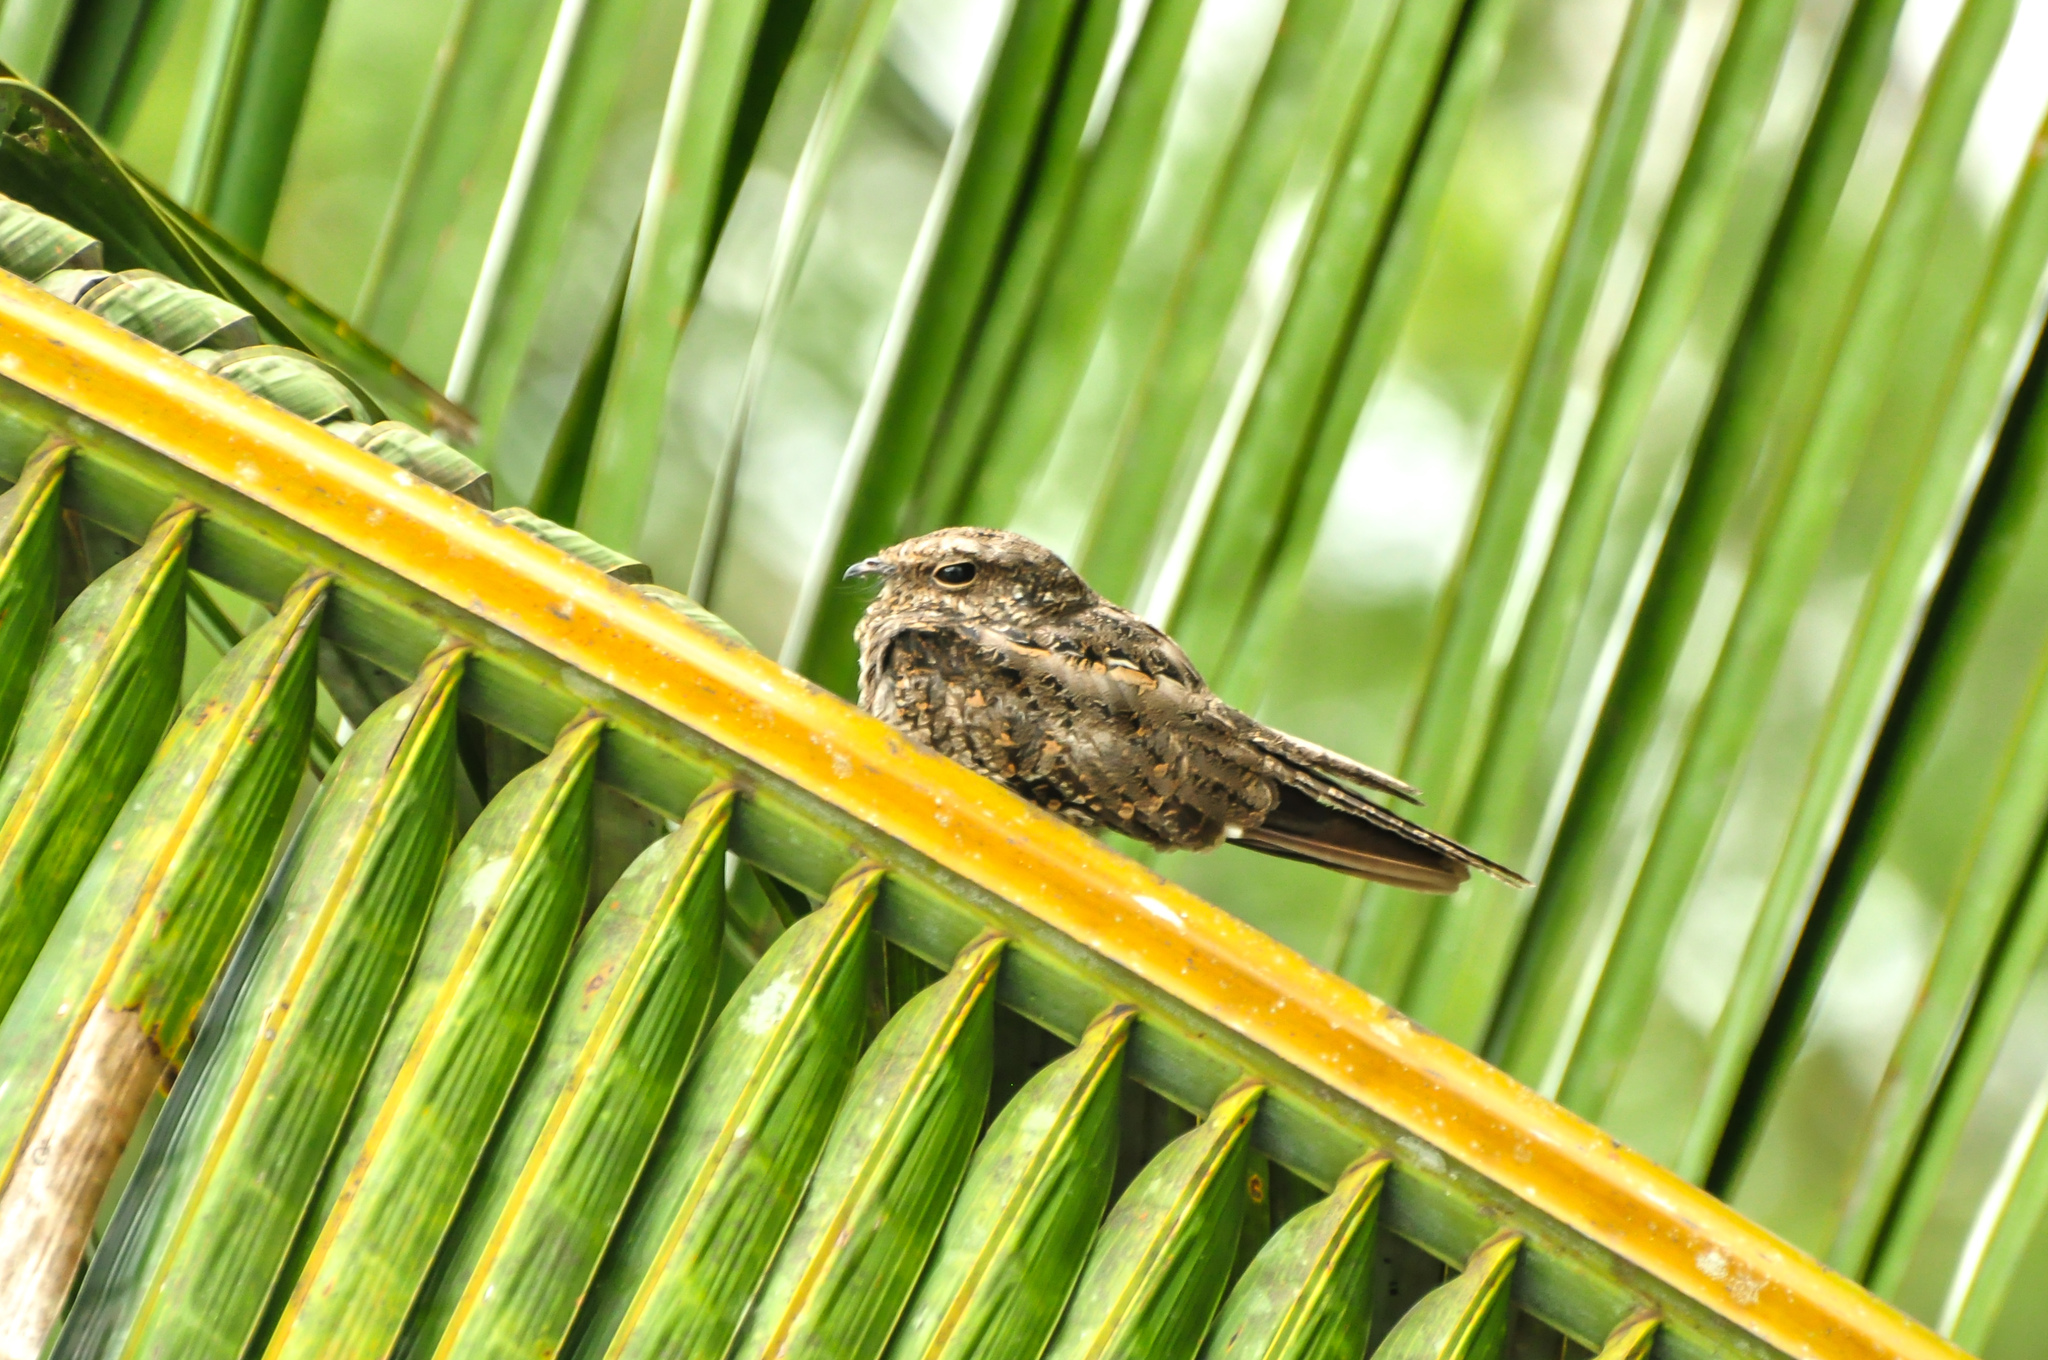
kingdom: Animalia
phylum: Chordata
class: Aves
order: Caprimulgiformes
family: Caprimulgidae
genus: Hydropsalis
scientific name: Hydropsalis climacocerca
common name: Ladder-tailed nightjar
